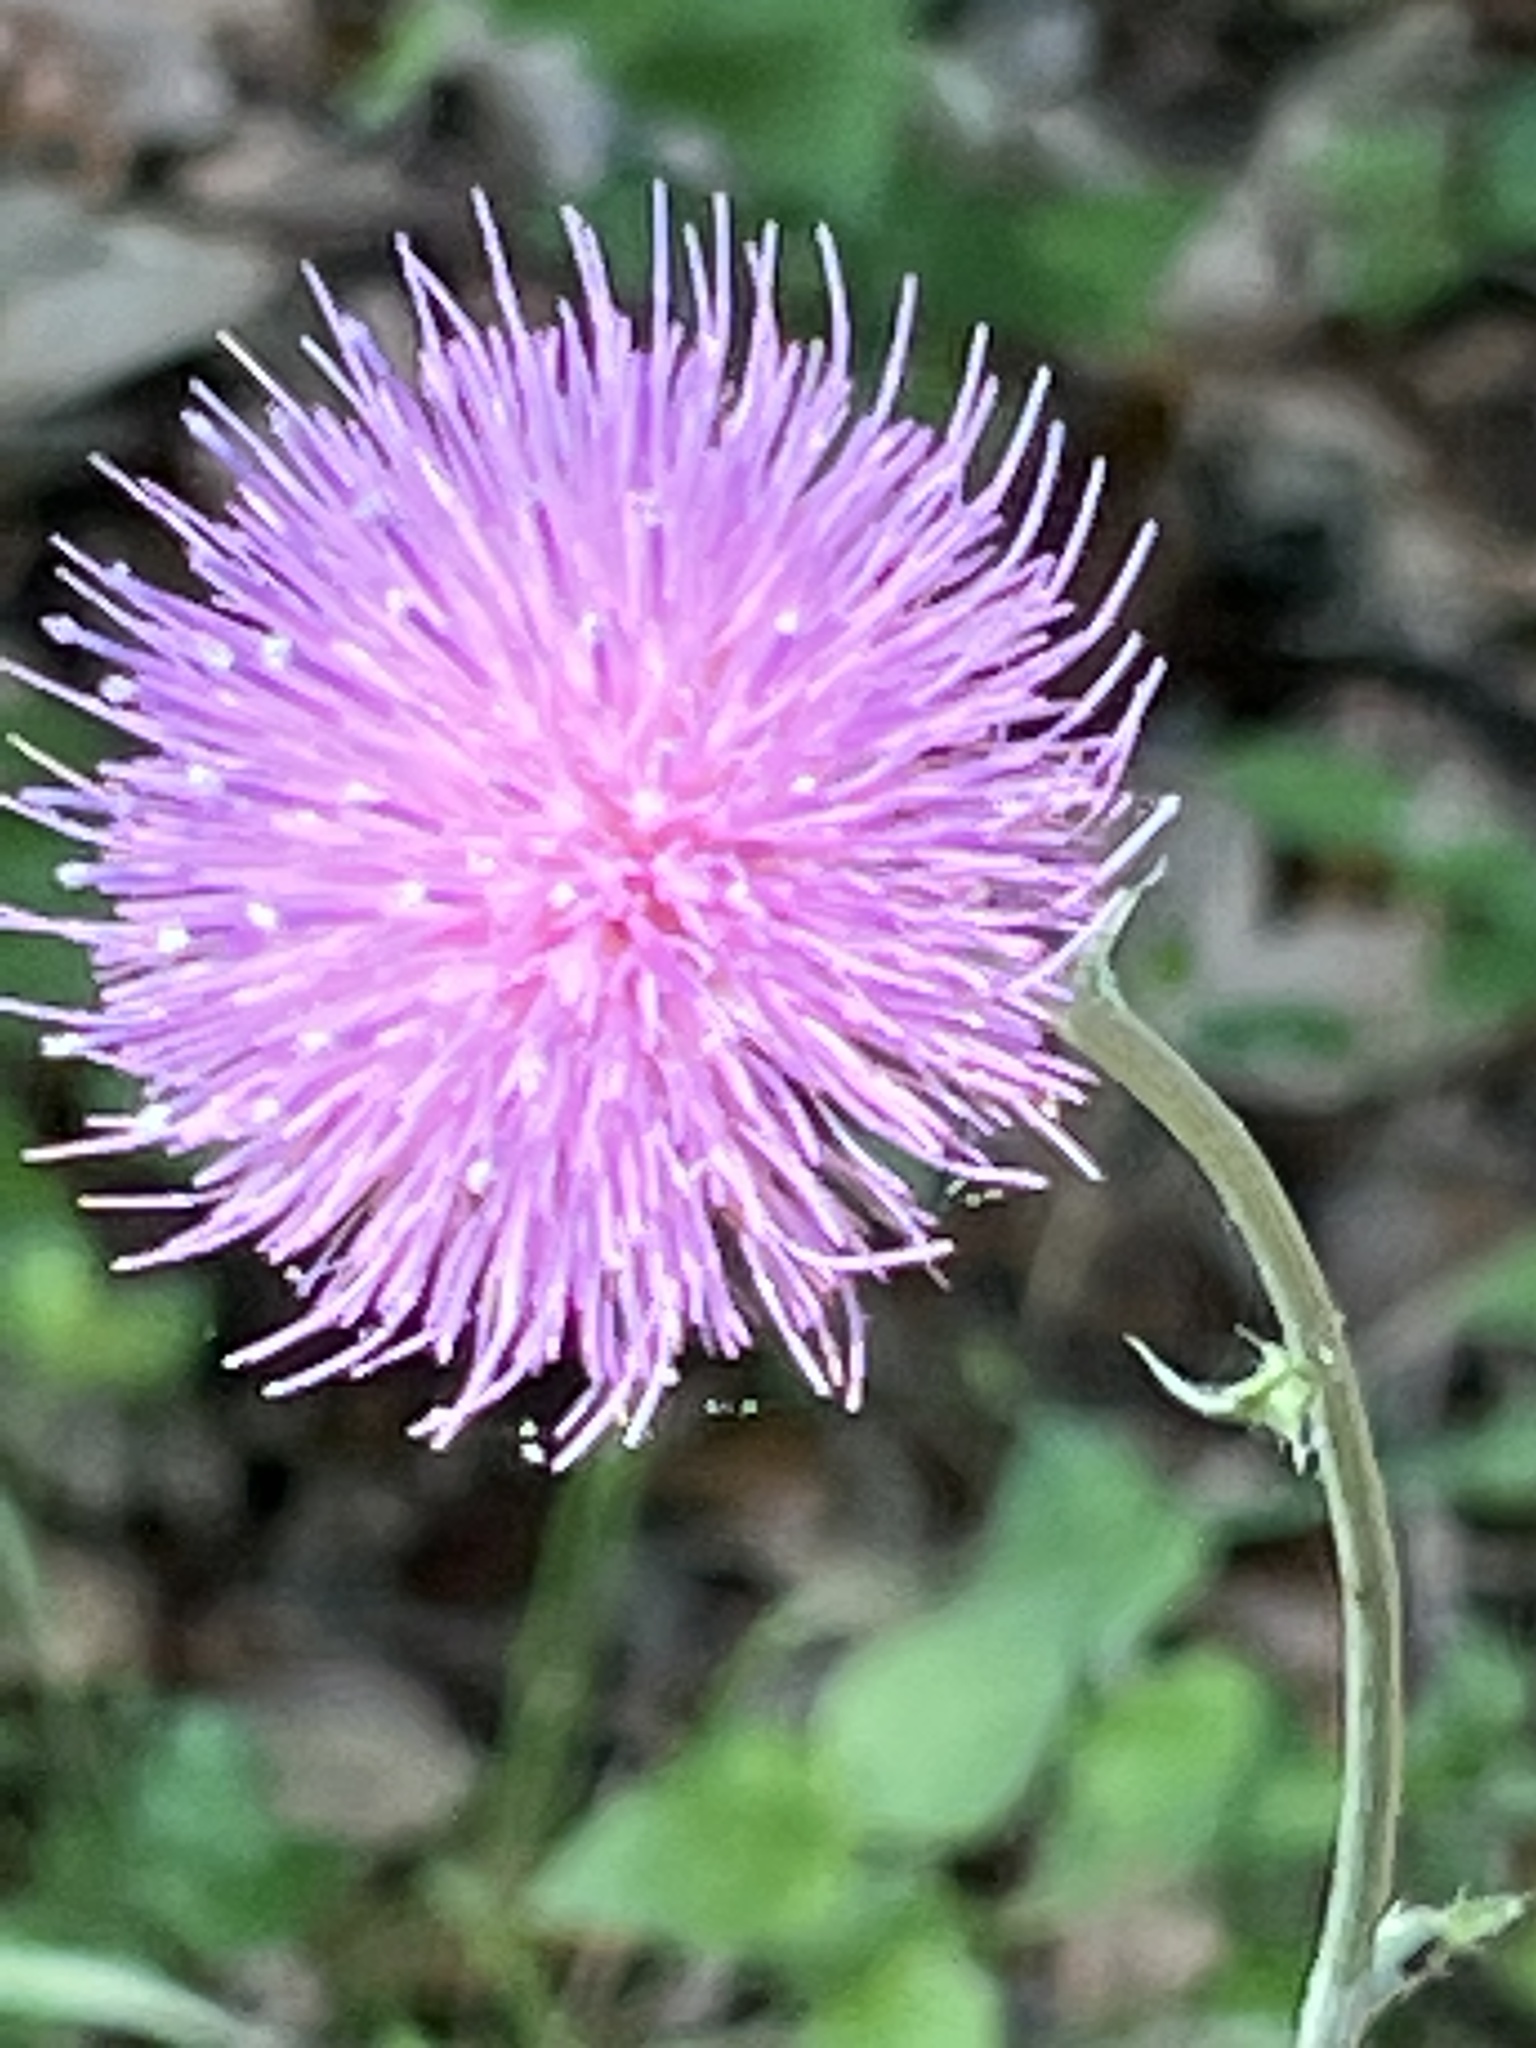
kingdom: Plantae
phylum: Tracheophyta
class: Magnoliopsida
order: Asterales
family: Asteraceae
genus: Cirsium
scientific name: Cirsium texanum
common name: Texas purple thistle
